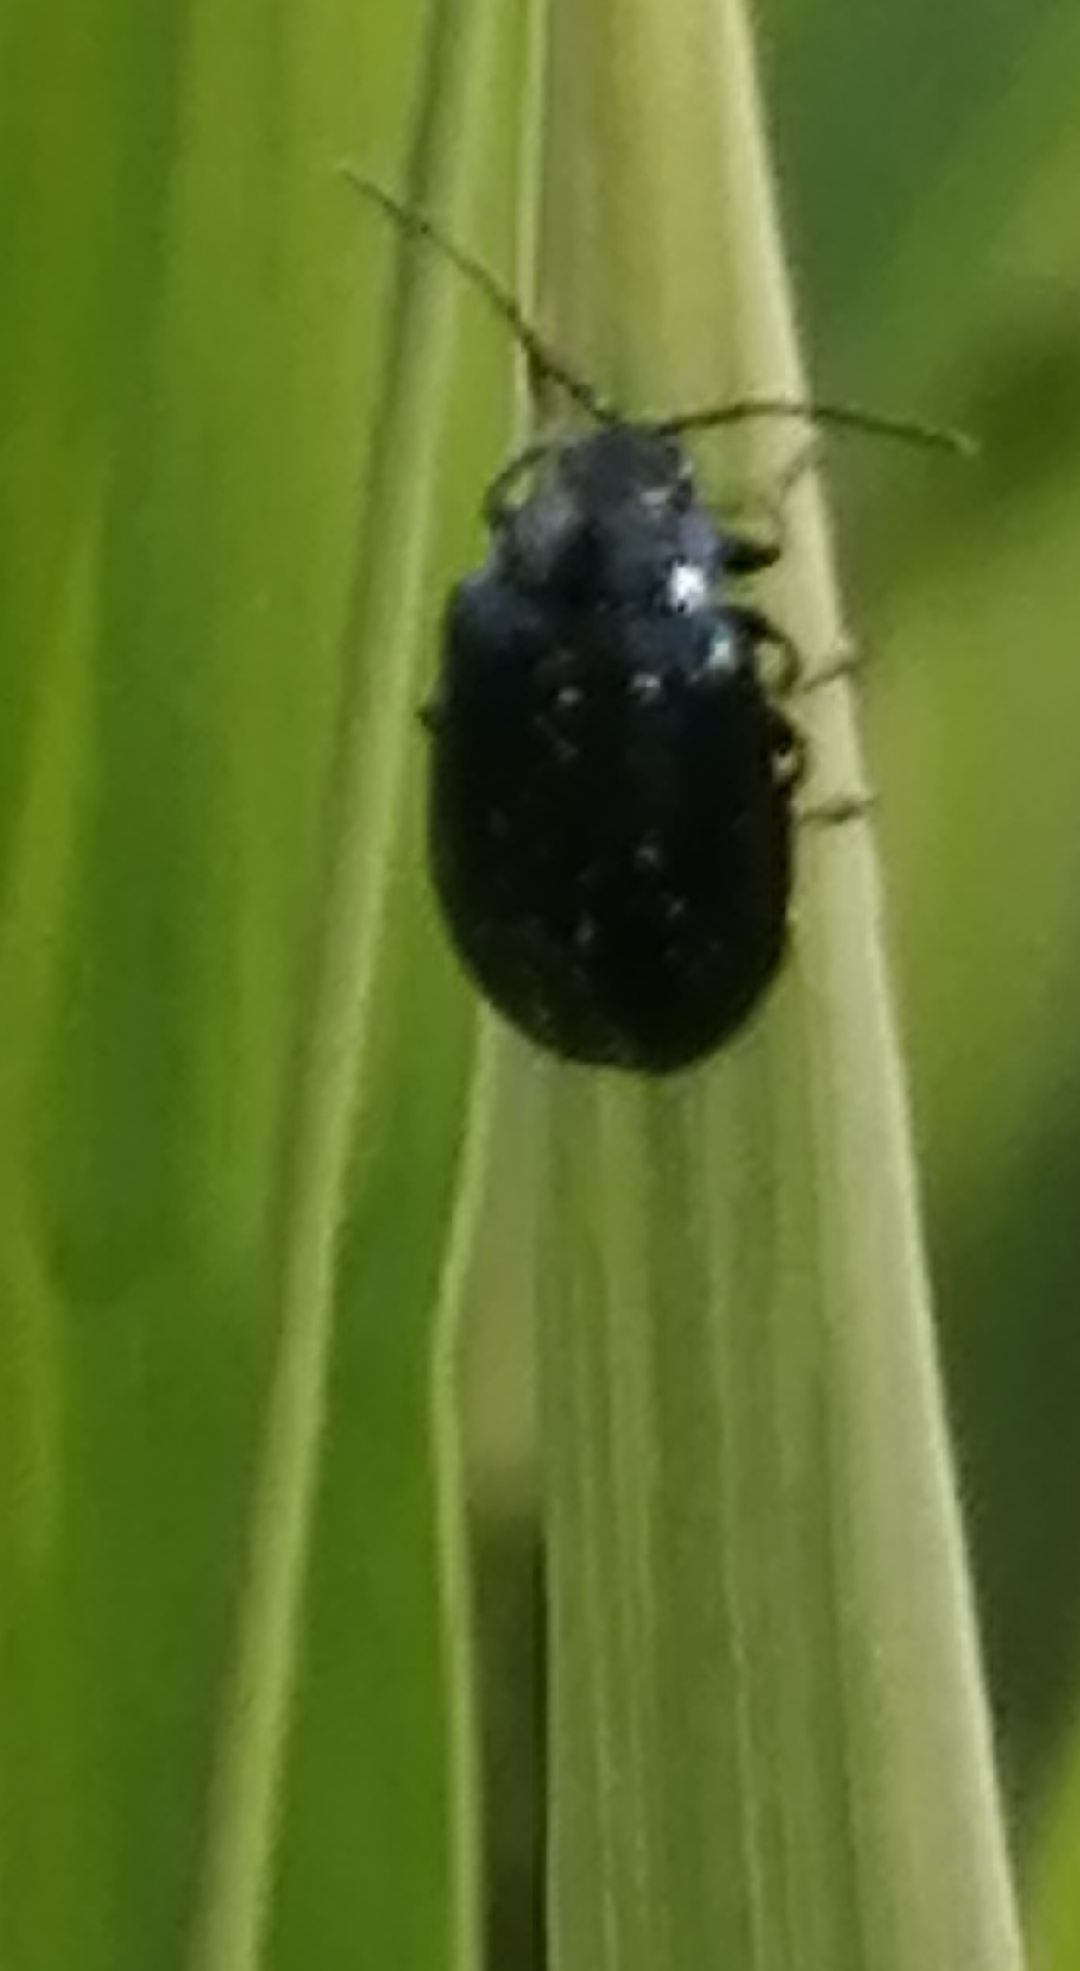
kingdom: Animalia
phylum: Arthropoda
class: Insecta
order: Coleoptera
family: Chrysomelidae
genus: Agelastica
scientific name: Agelastica alni
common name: Alder leaf beetle
